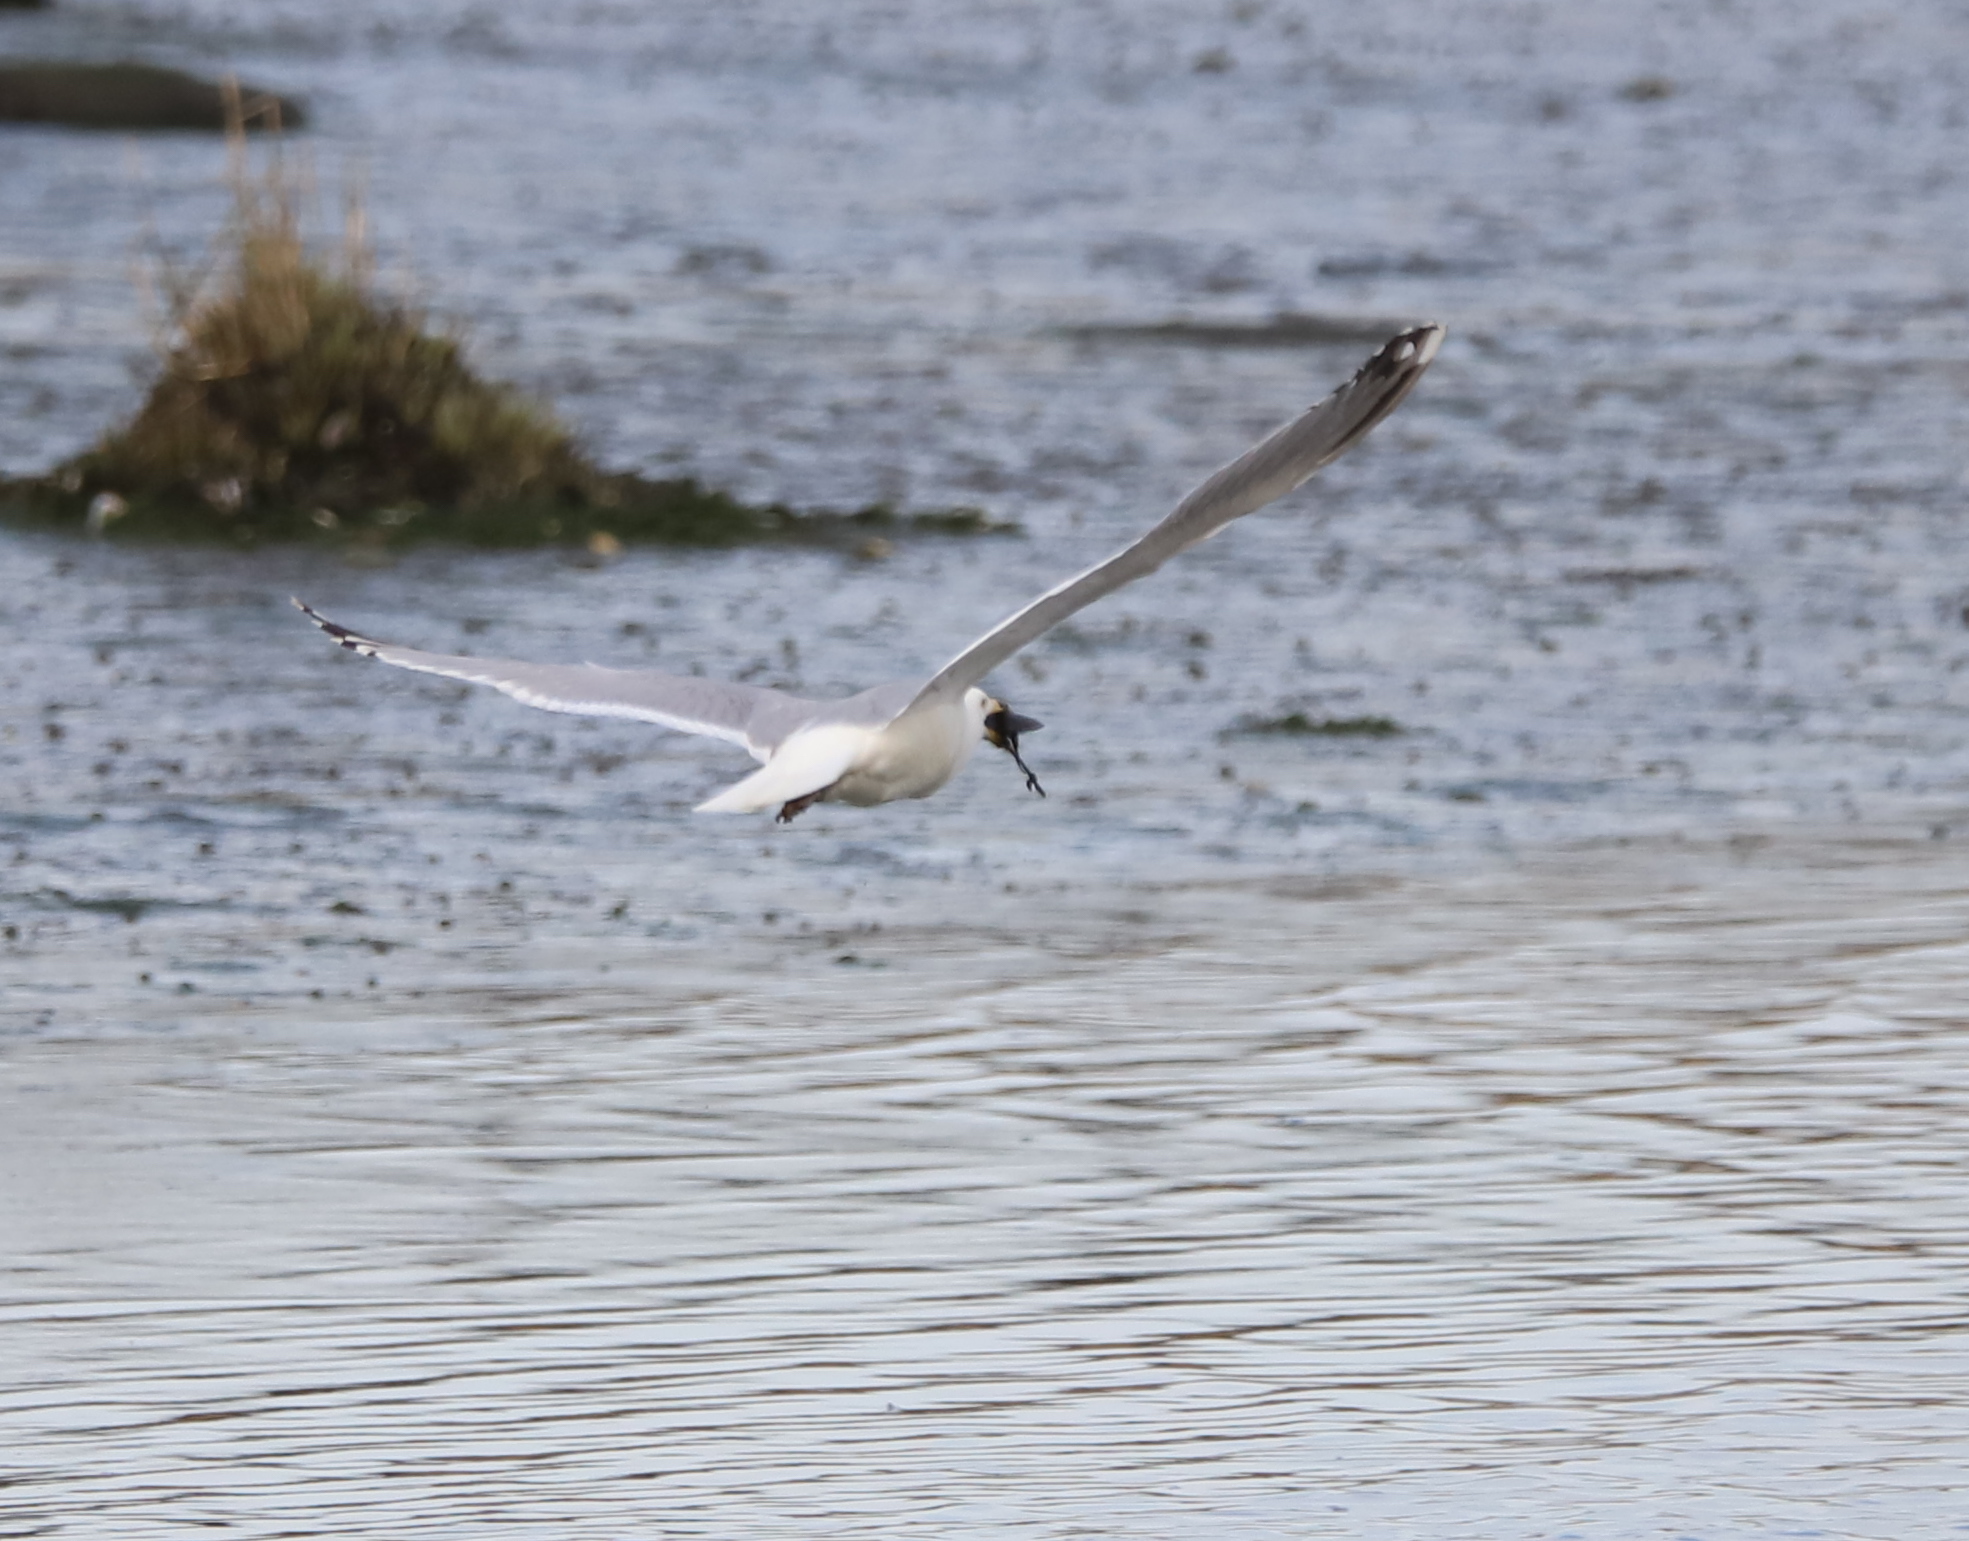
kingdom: Animalia
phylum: Chordata
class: Aves
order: Charadriiformes
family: Laridae
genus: Larus
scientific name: Larus argentatus
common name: Herring gull
